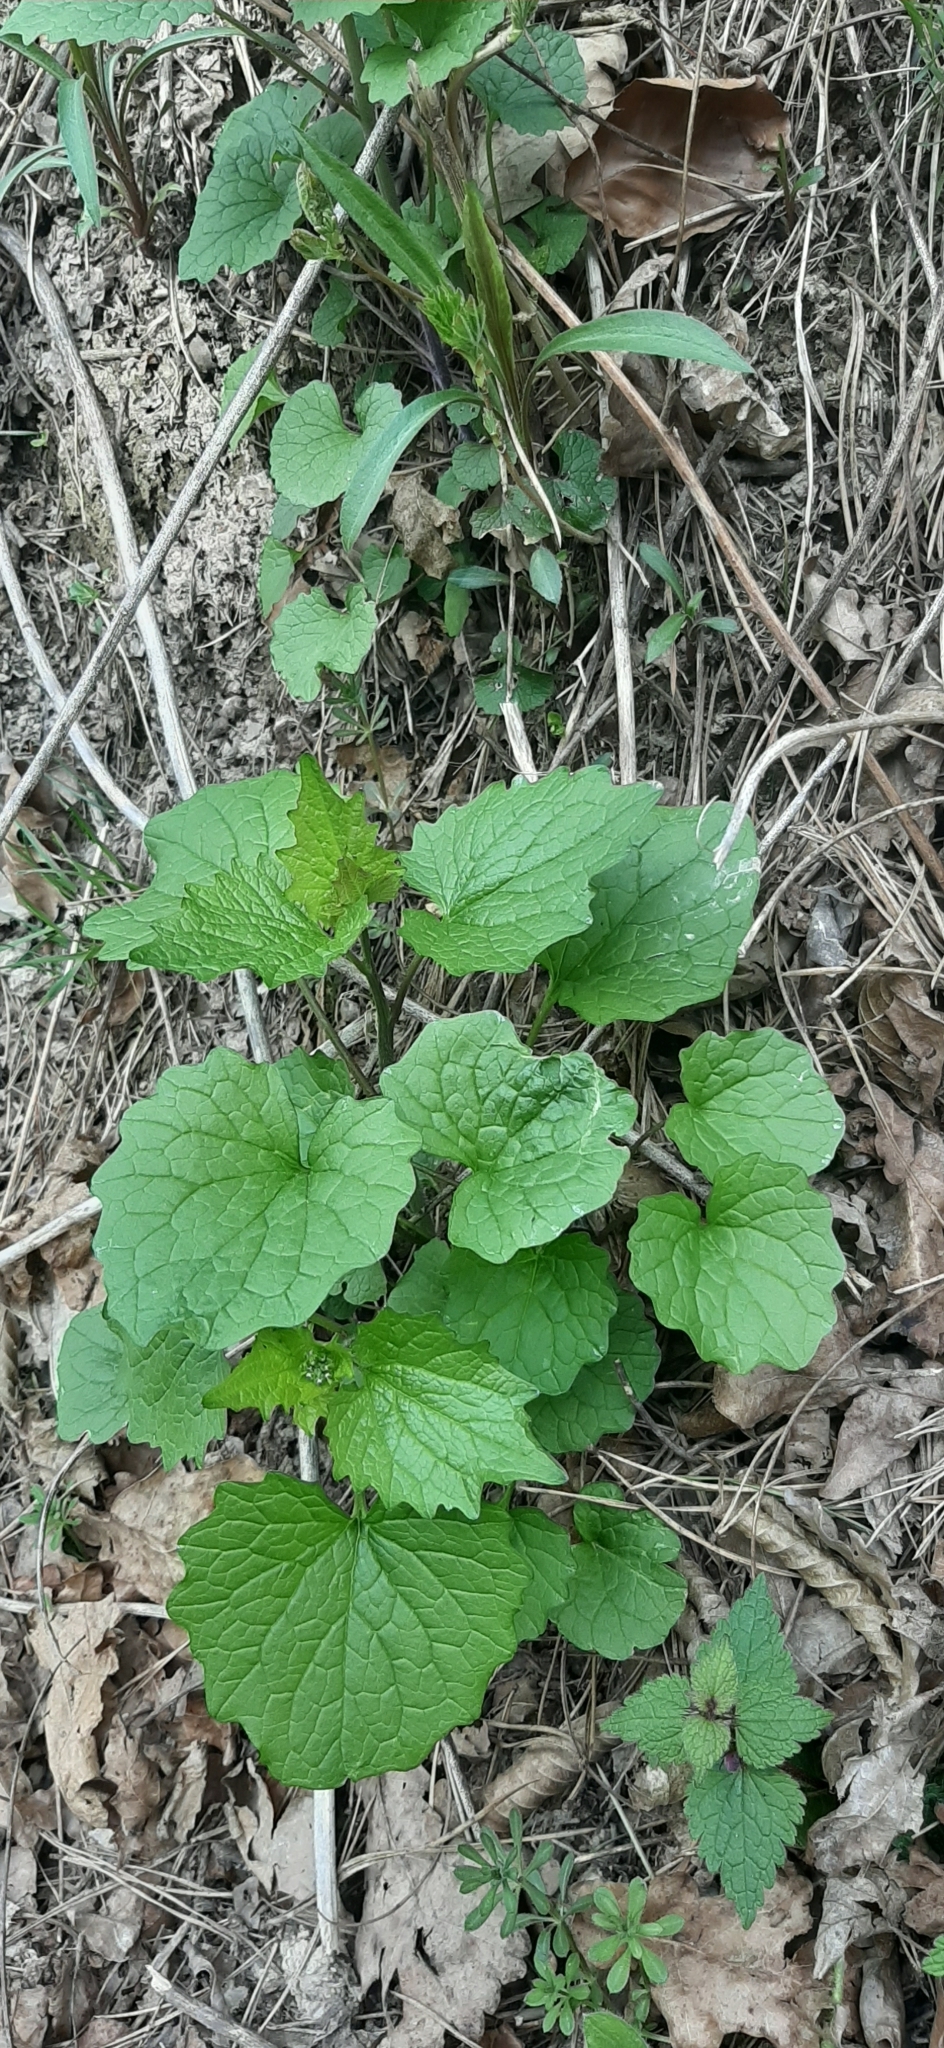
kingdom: Plantae
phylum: Tracheophyta
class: Magnoliopsida
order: Brassicales
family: Brassicaceae
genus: Alliaria
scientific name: Alliaria petiolata
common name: Garlic mustard
